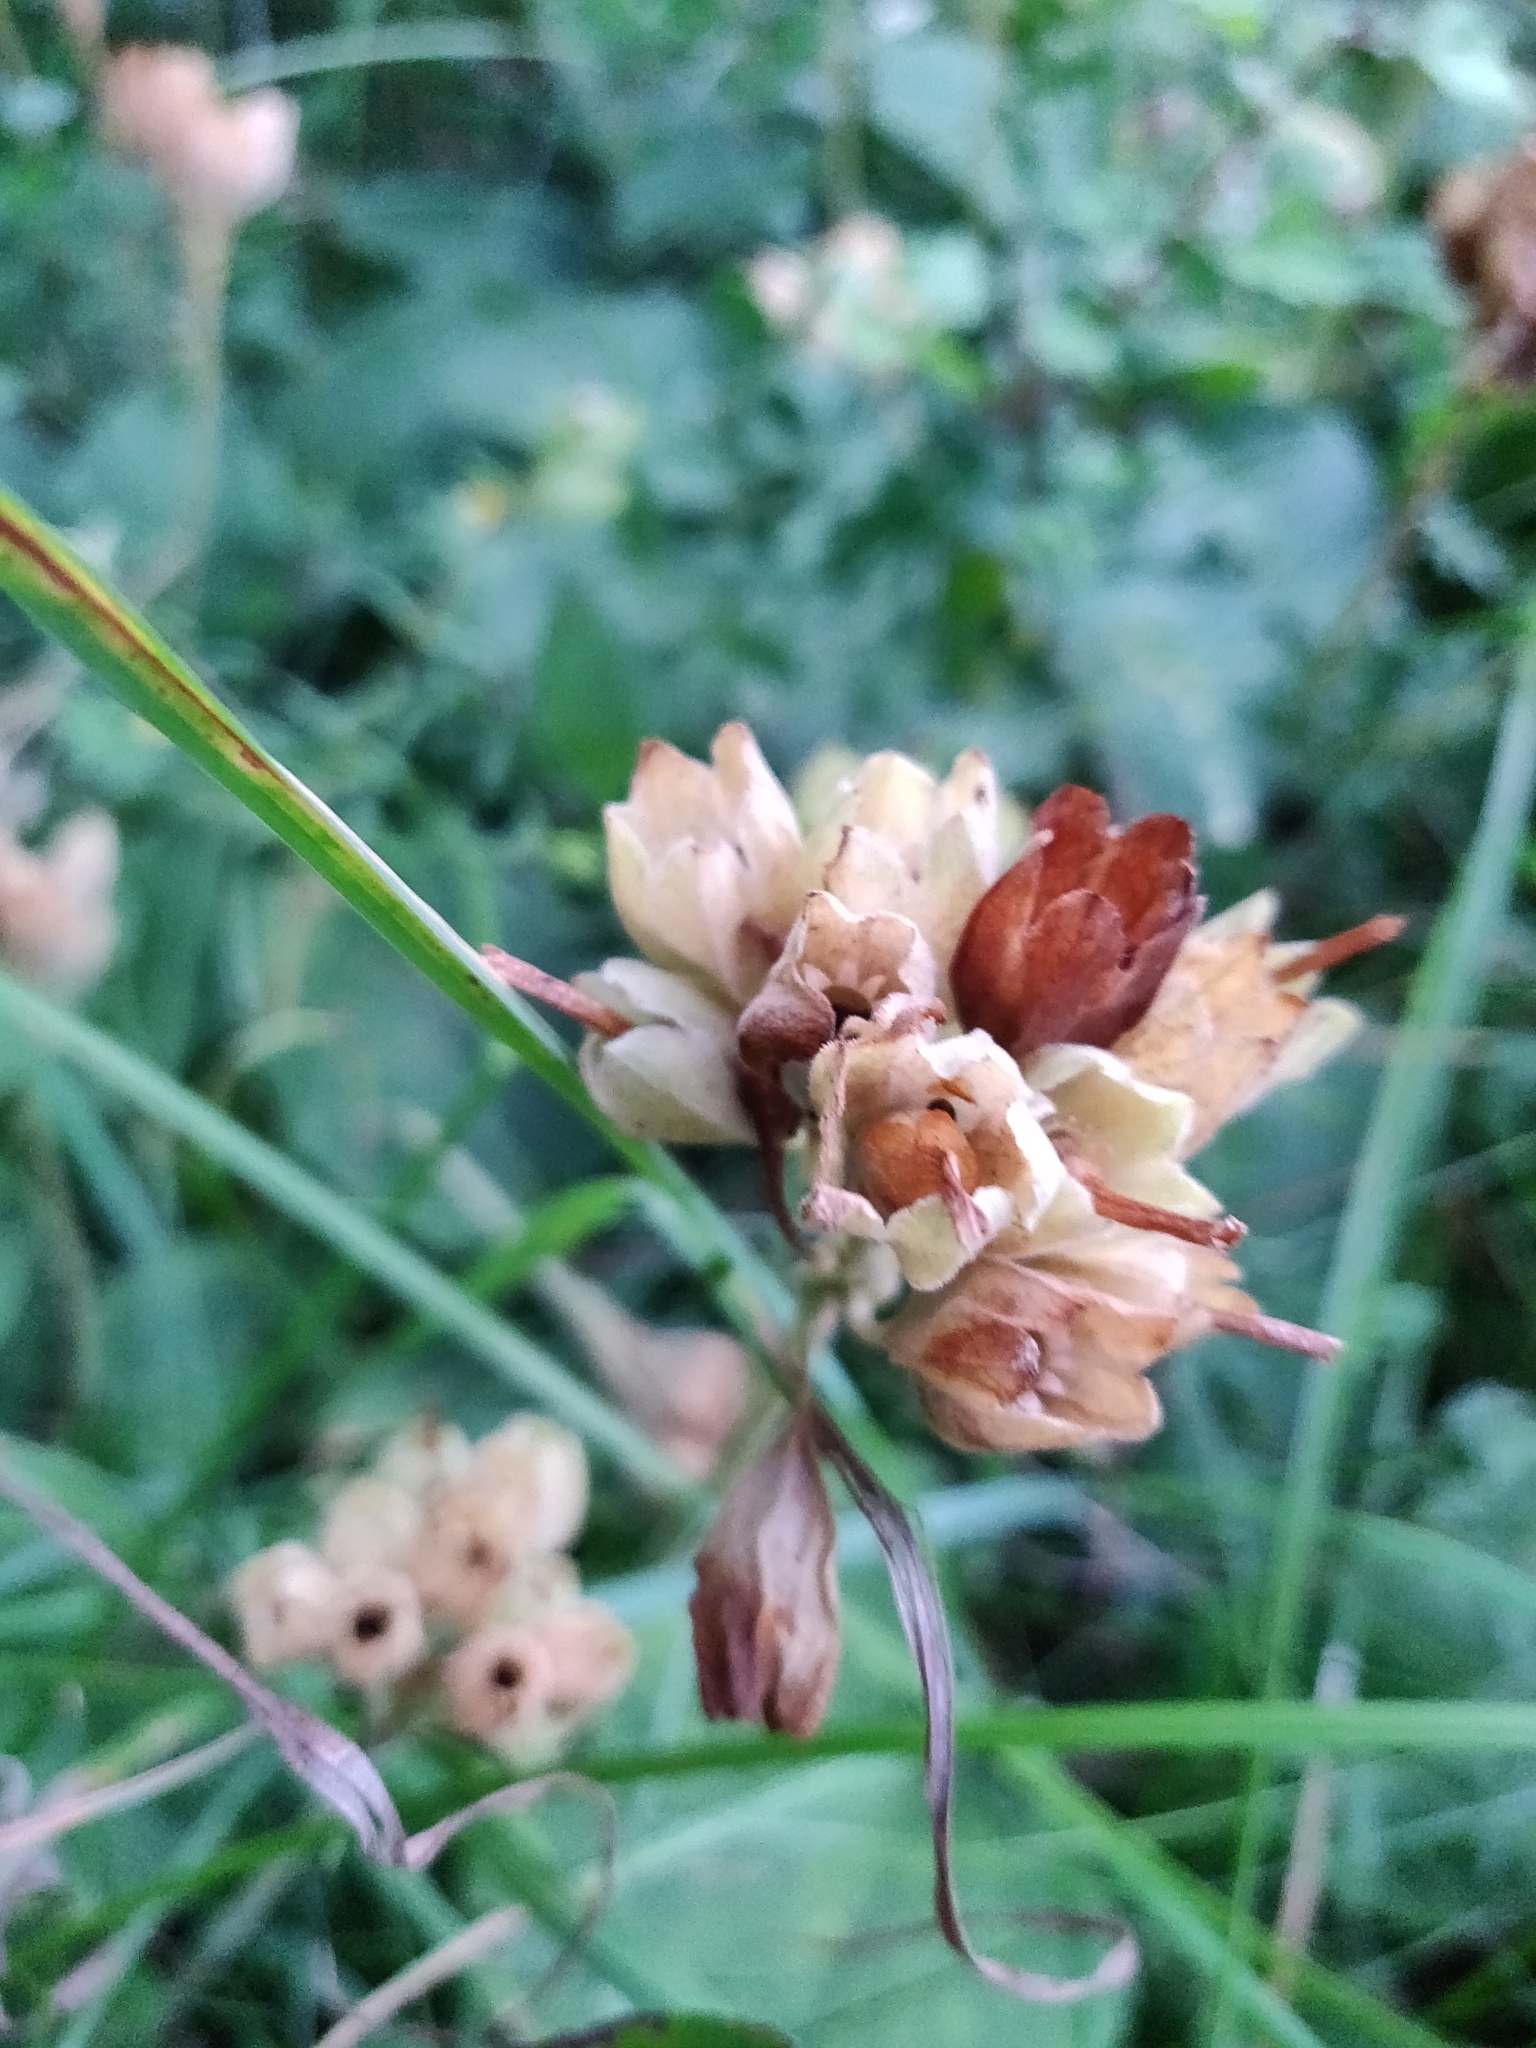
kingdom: Plantae
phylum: Tracheophyta
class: Magnoliopsida
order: Ericales
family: Primulaceae
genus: Primula
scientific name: Primula veris
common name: Cowslip
